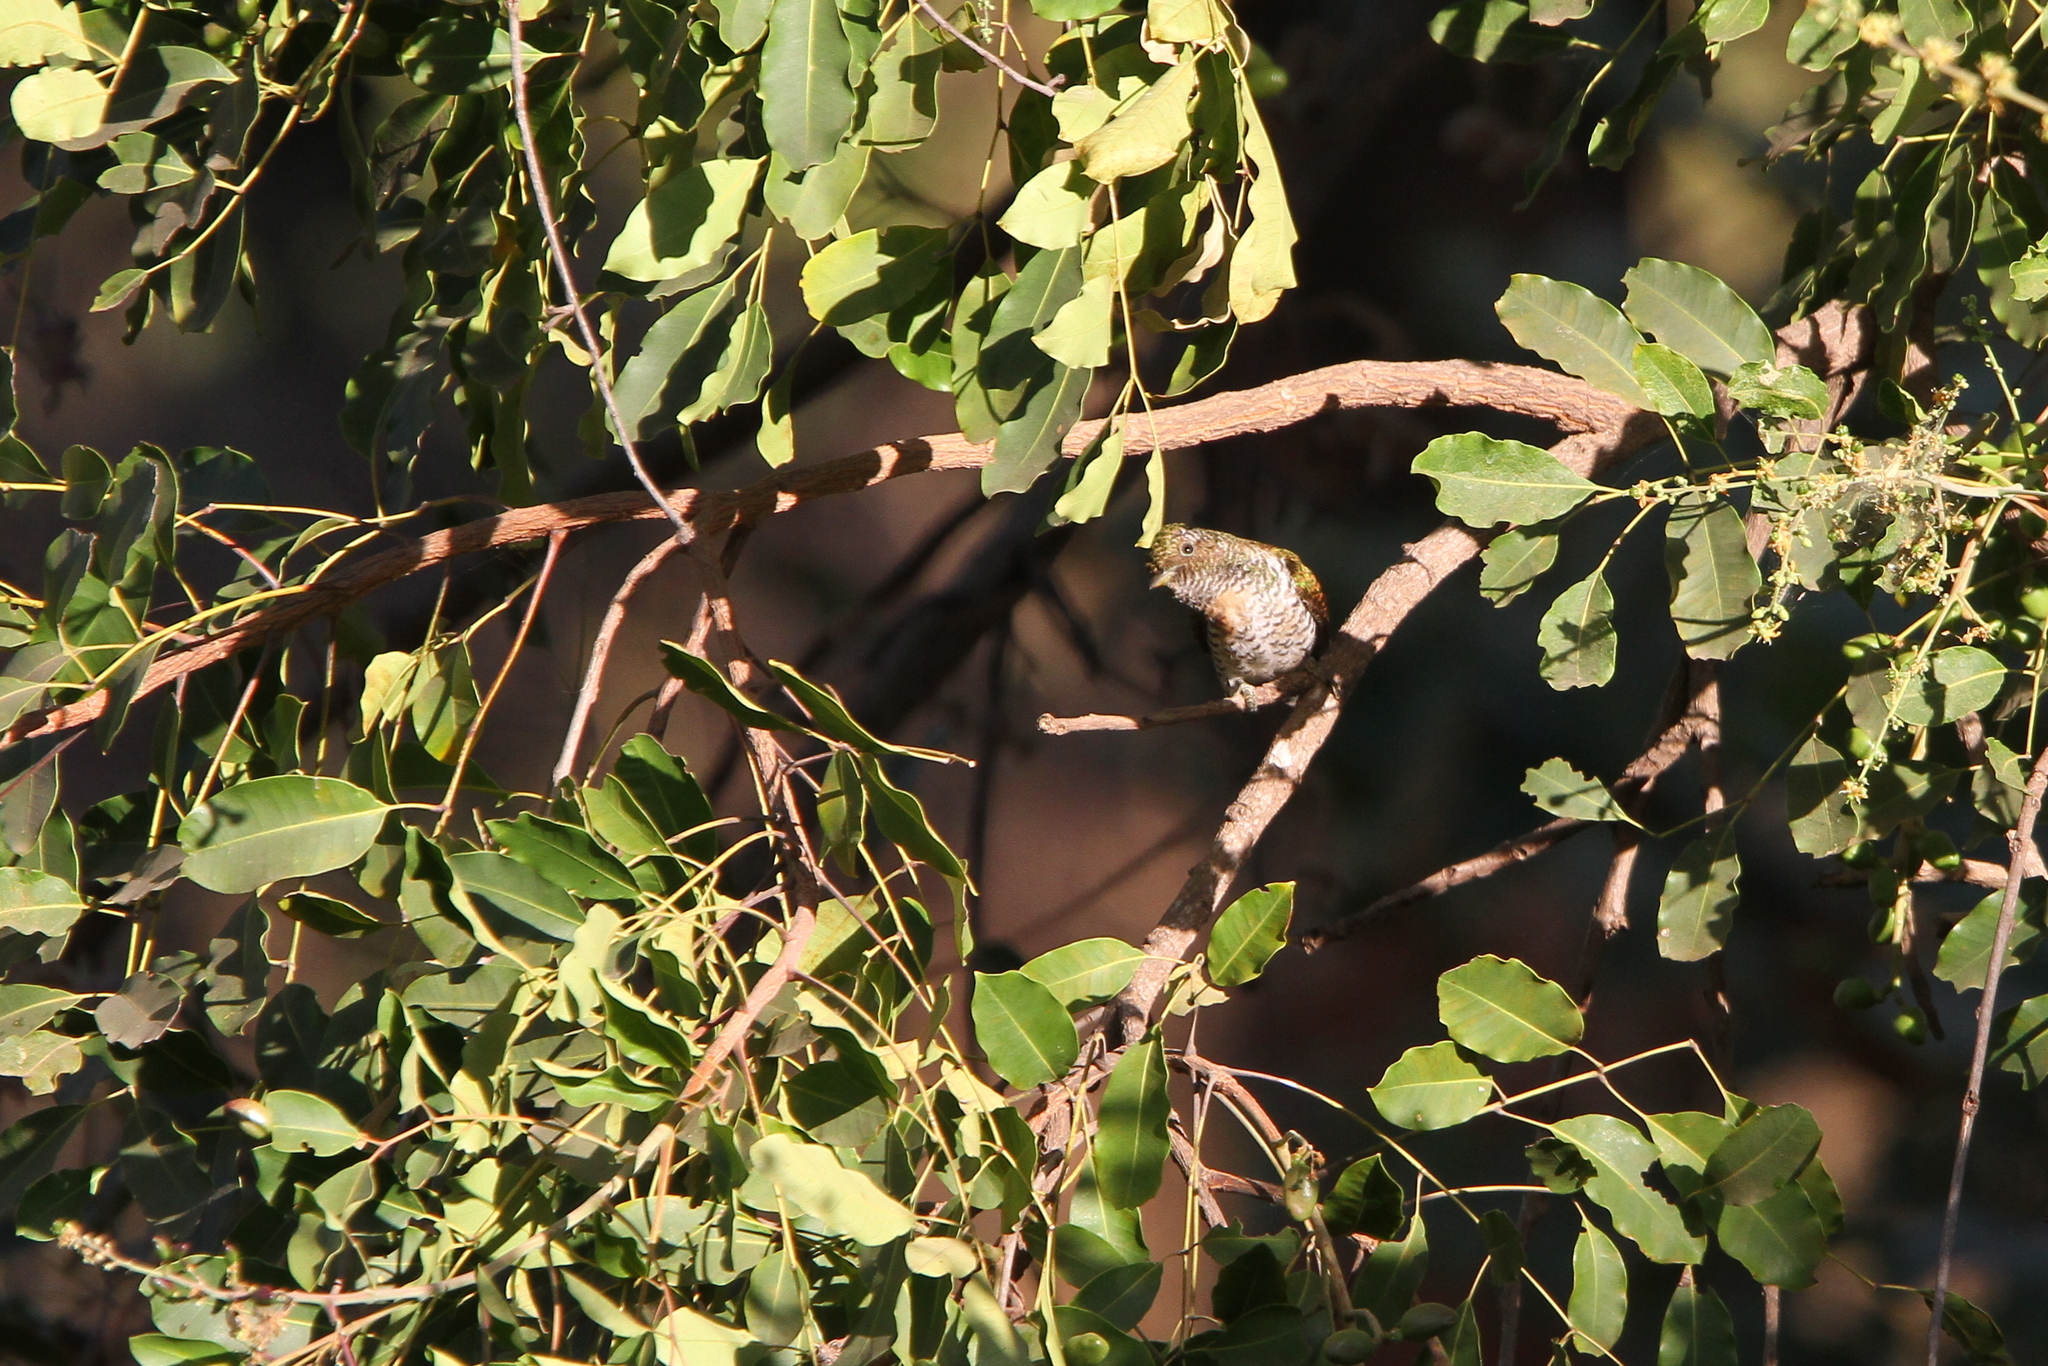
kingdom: Animalia
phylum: Chordata
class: Aves
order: Cuculiformes
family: Cuculidae
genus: Chrysococcyx
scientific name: Chrysococcyx klaas
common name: Klaas's cuckoo
